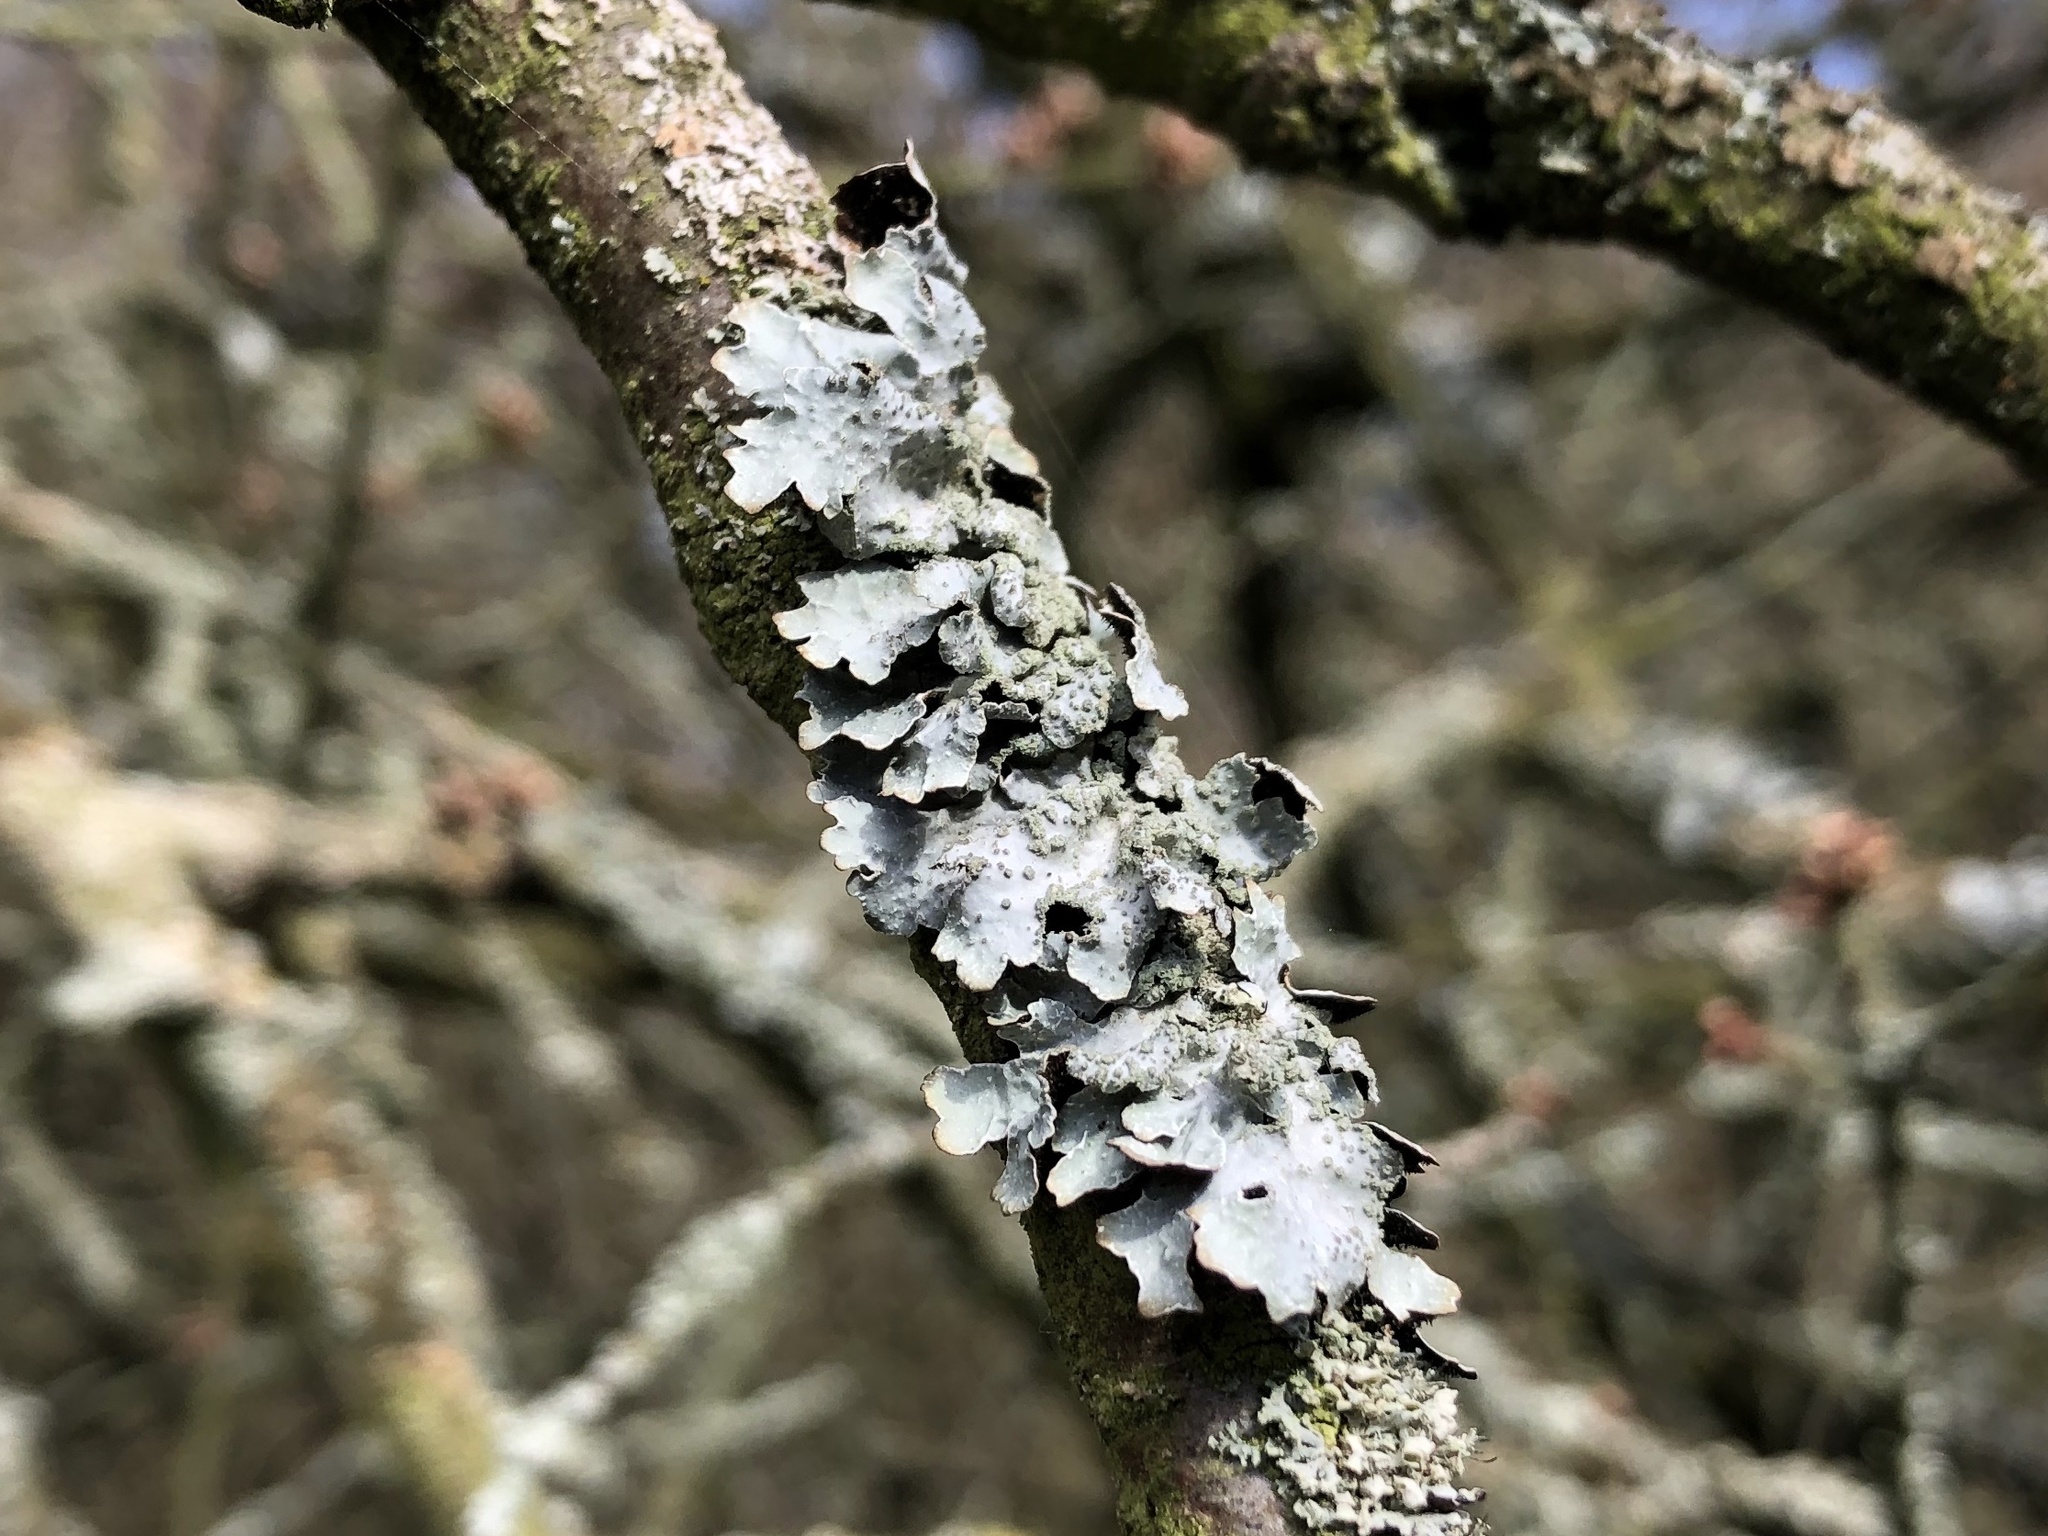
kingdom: Fungi
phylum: Ascomycota
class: Lecanoromycetes
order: Lecanorales
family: Parmeliaceae
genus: Parmelia
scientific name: Parmelia sulcata
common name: Netted shield lichen
